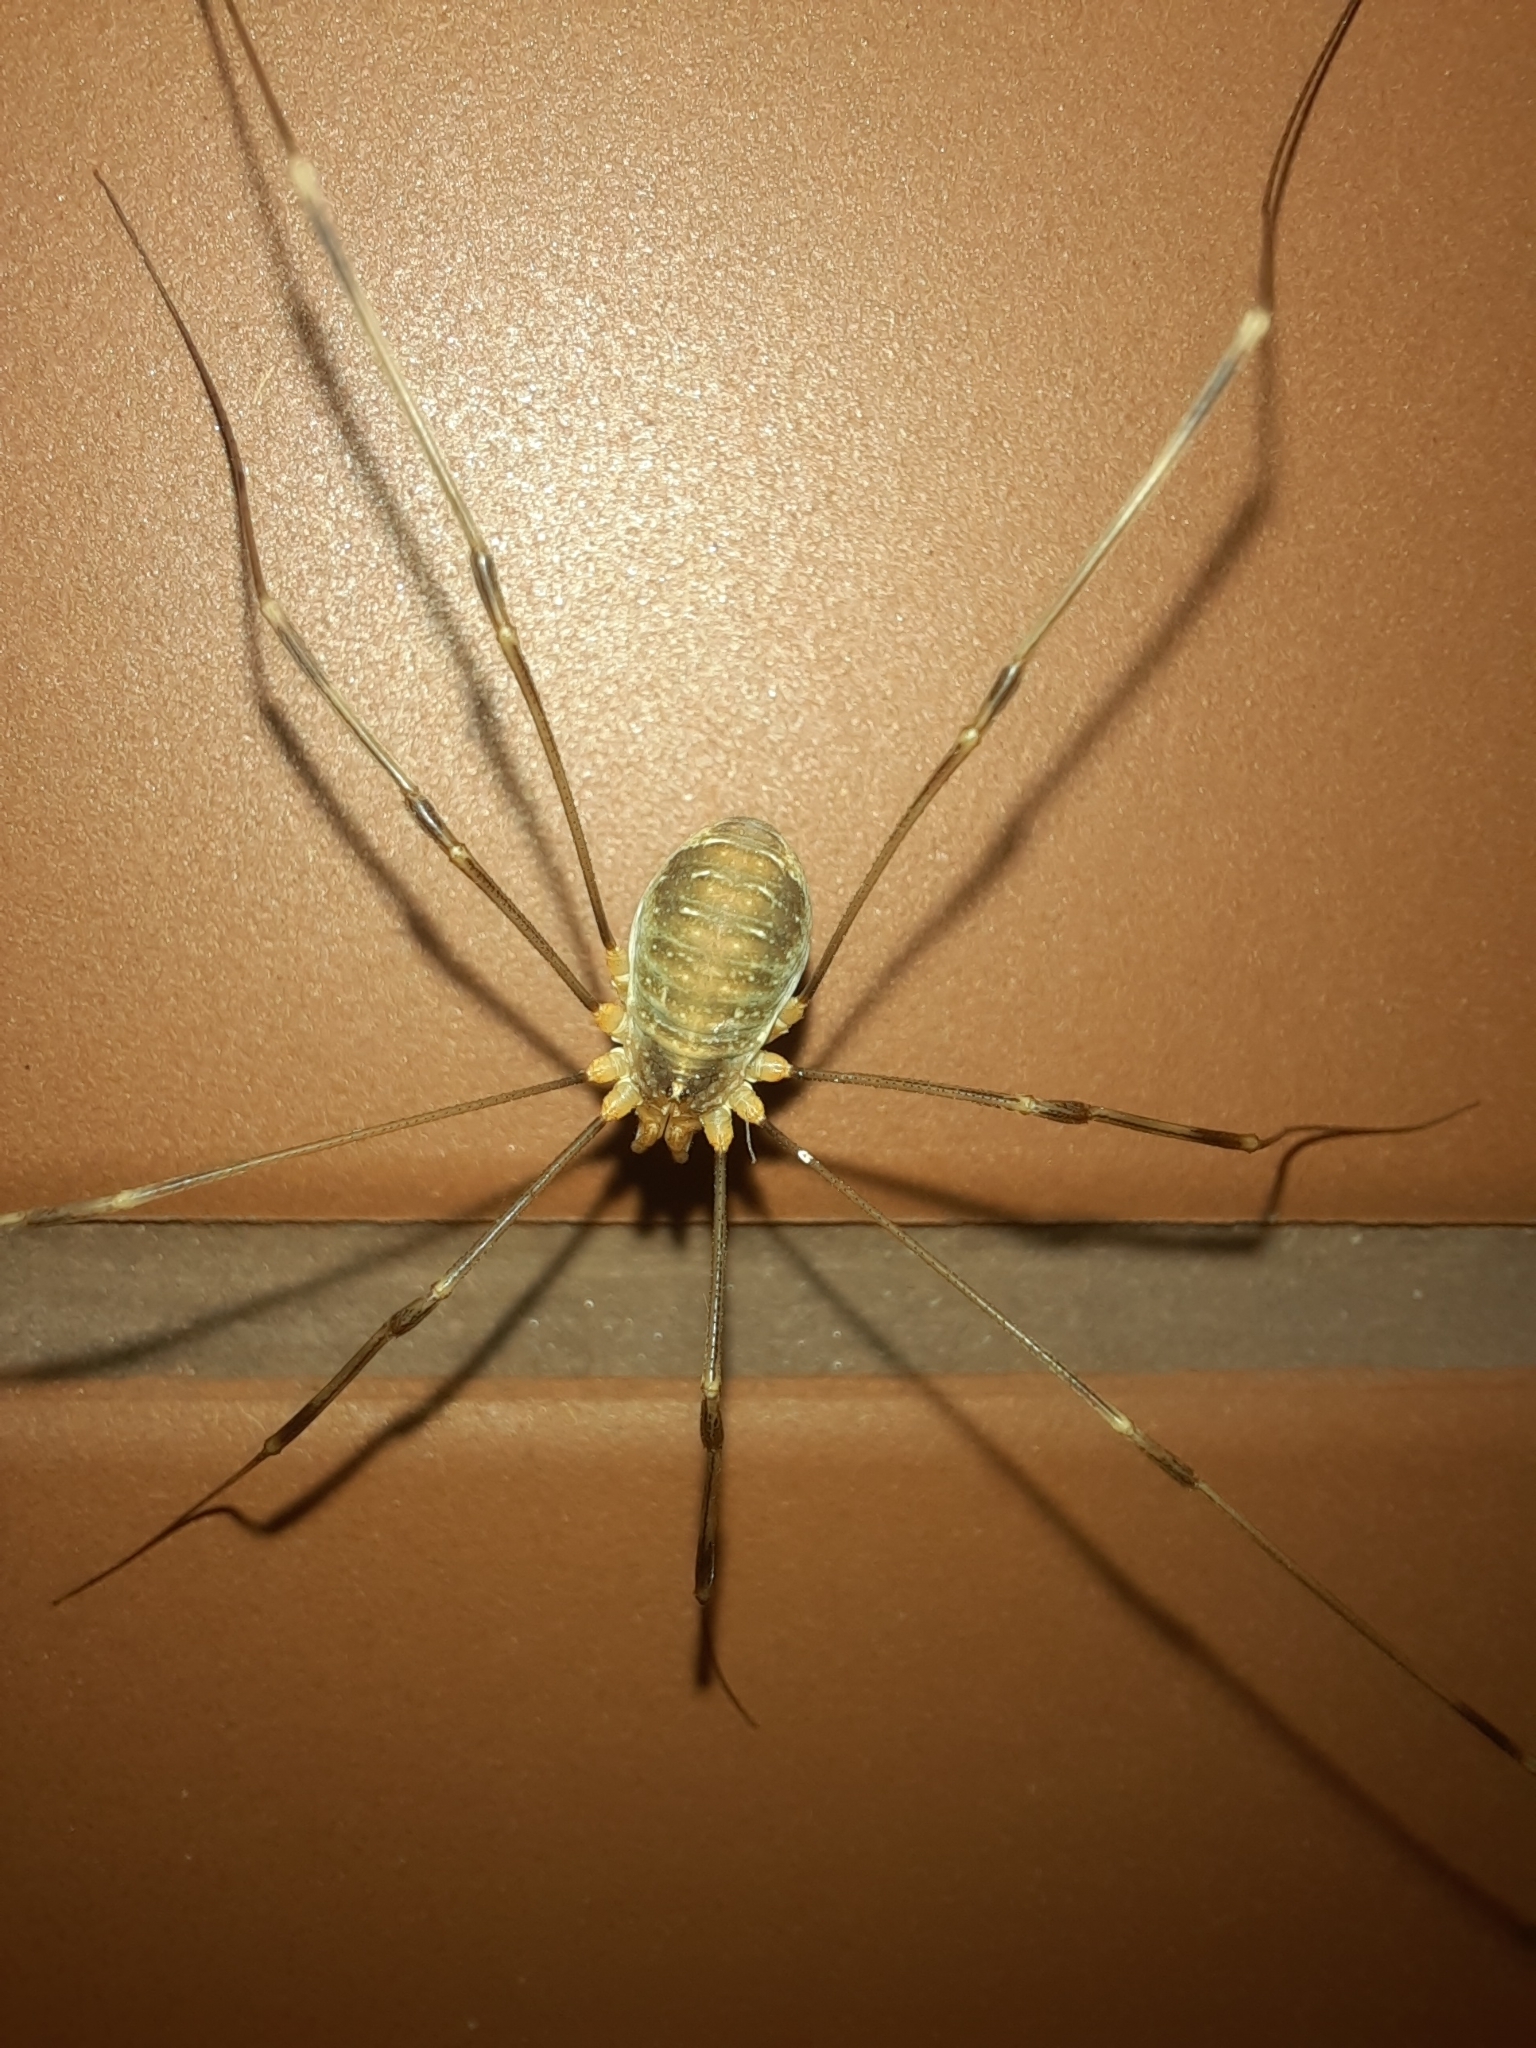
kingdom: Animalia
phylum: Arthropoda
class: Arachnida
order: Opiliones
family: Phalangiidae
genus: Opilio
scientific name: Opilio canestrinii
